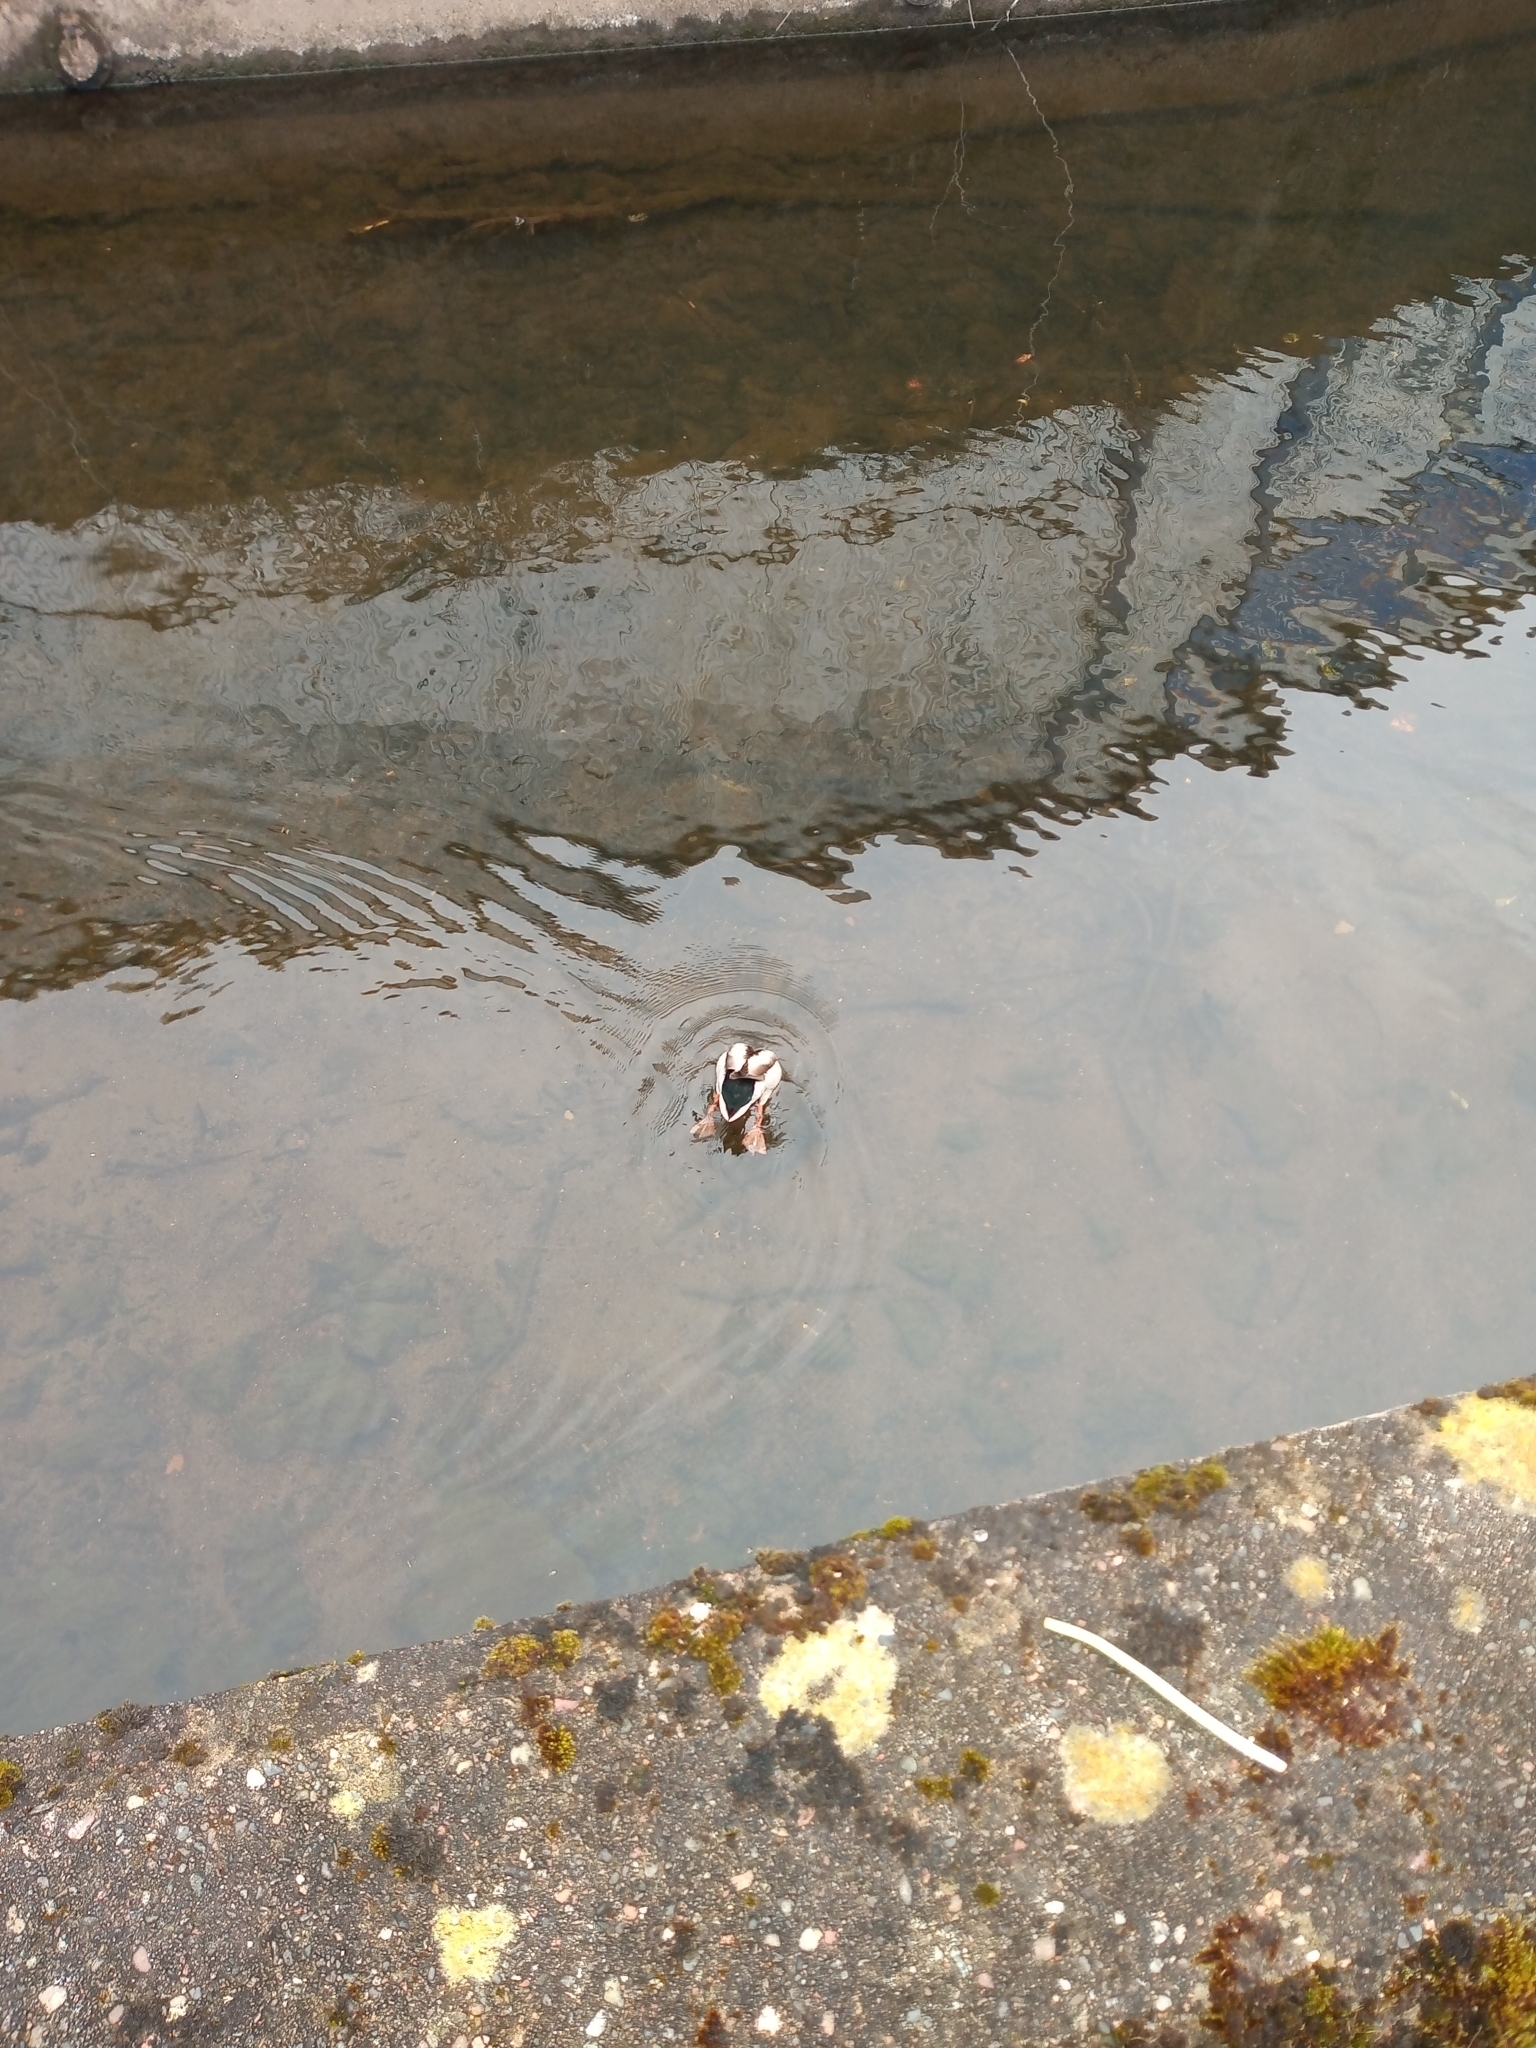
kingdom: Animalia
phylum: Chordata
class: Aves
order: Anseriformes
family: Anatidae
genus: Anas
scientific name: Anas platyrhynchos
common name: Mallard
